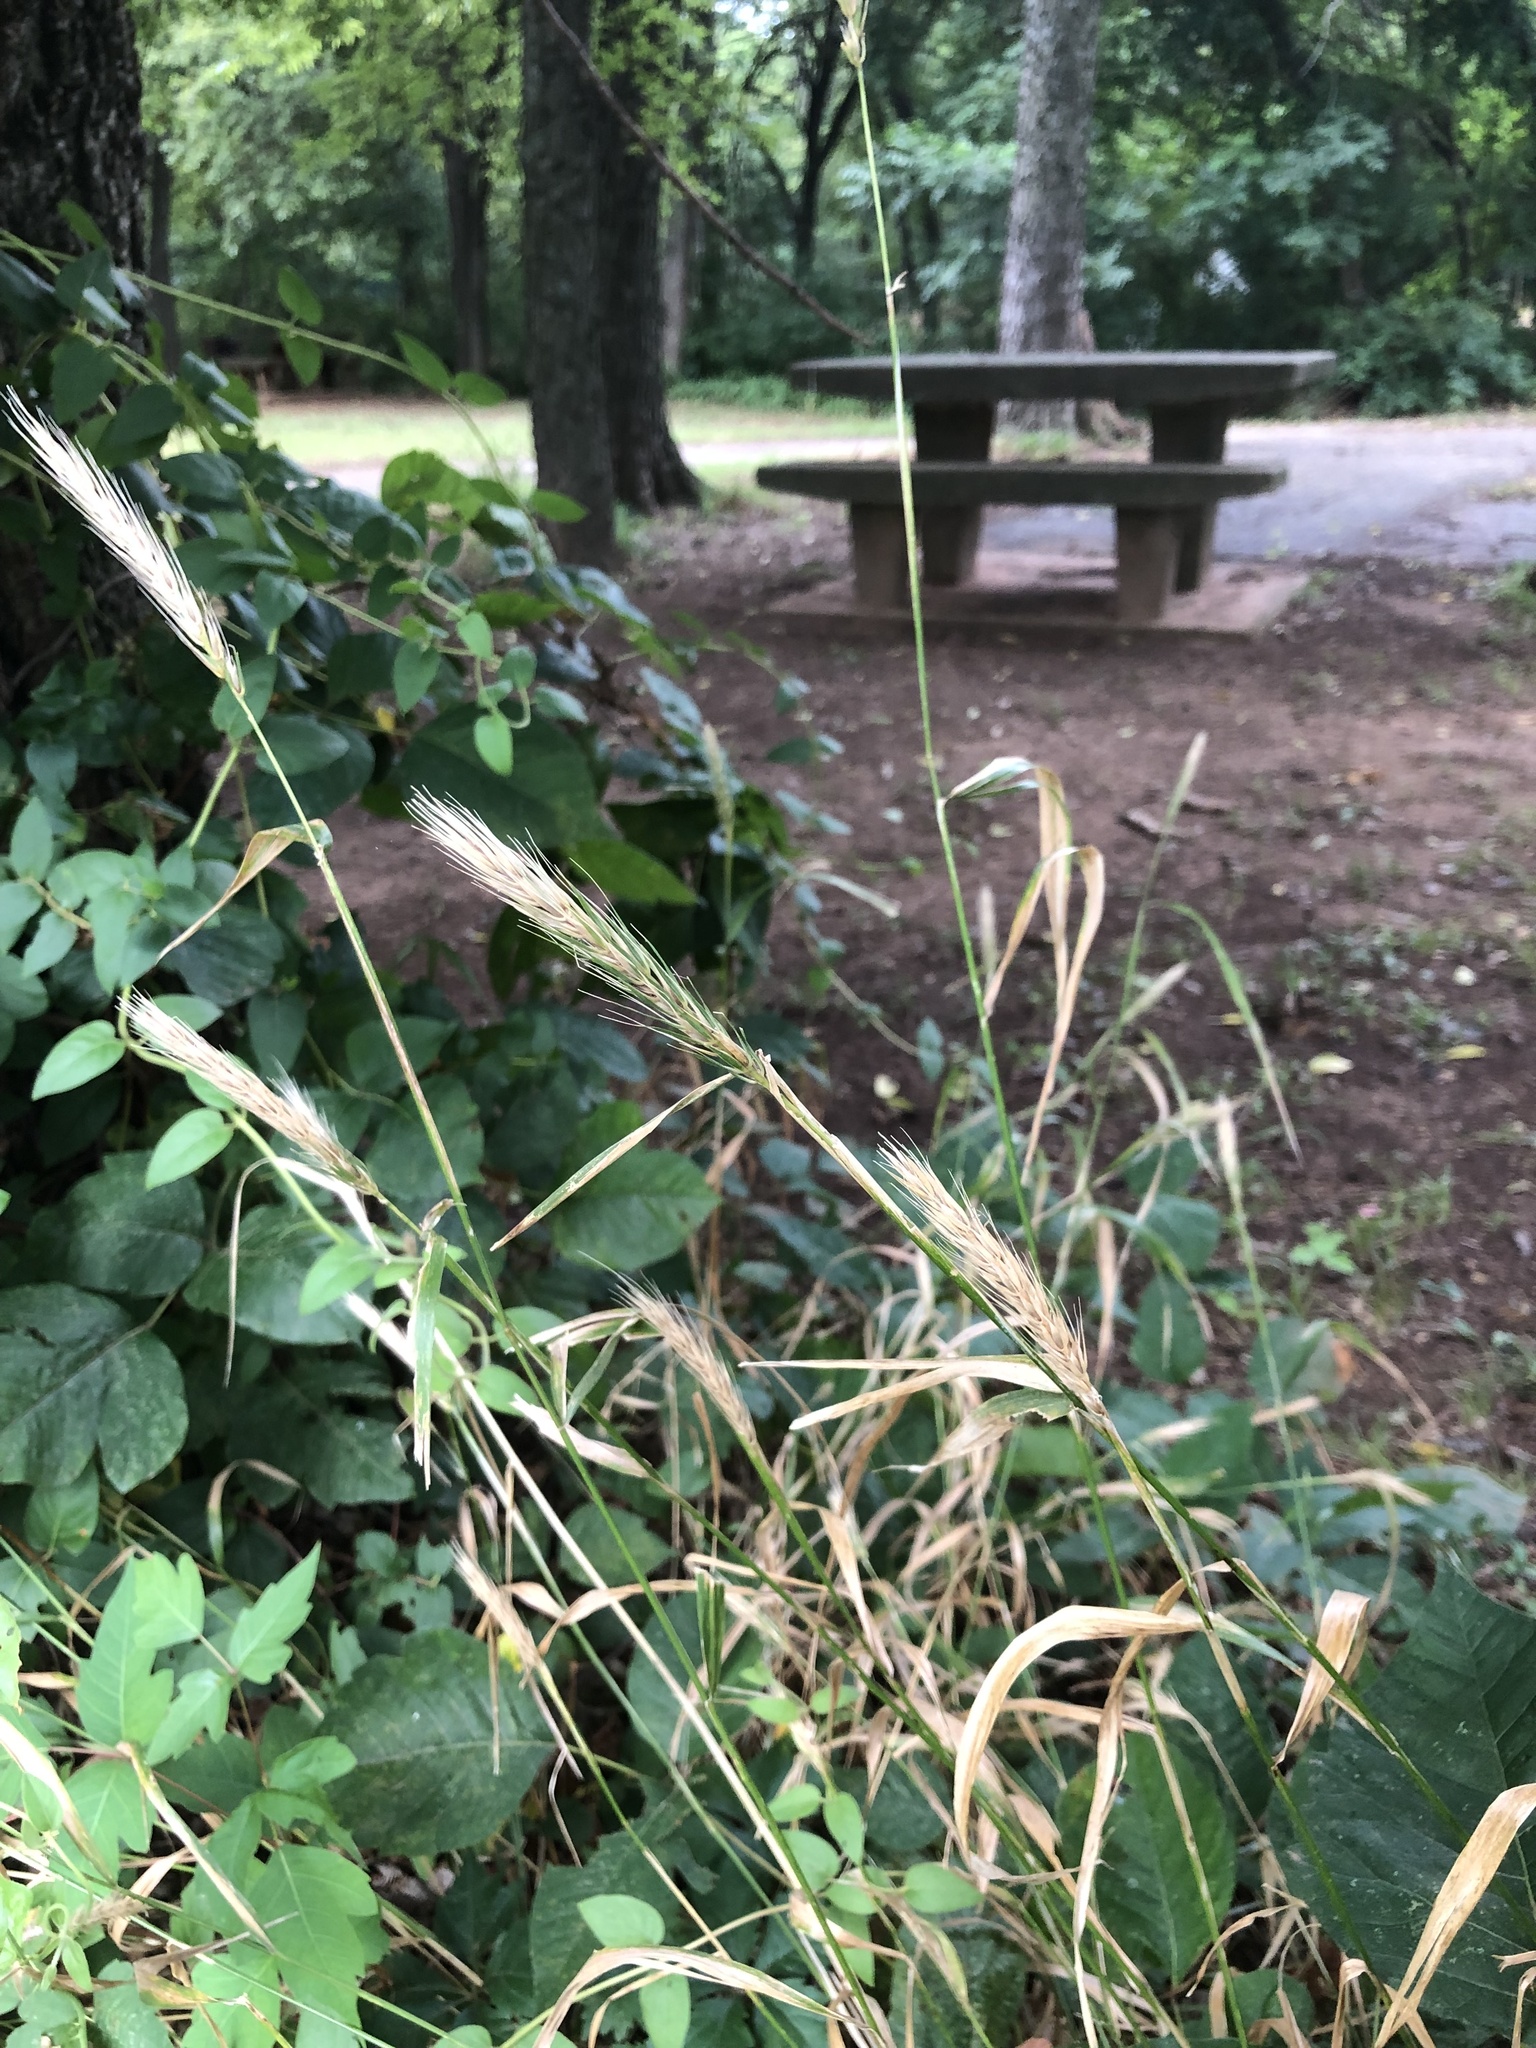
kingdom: Plantae
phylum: Tracheophyta
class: Liliopsida
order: Poales
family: Poaceae
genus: Elymus
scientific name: Elymus virginicus
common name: Common eastern wildrye
